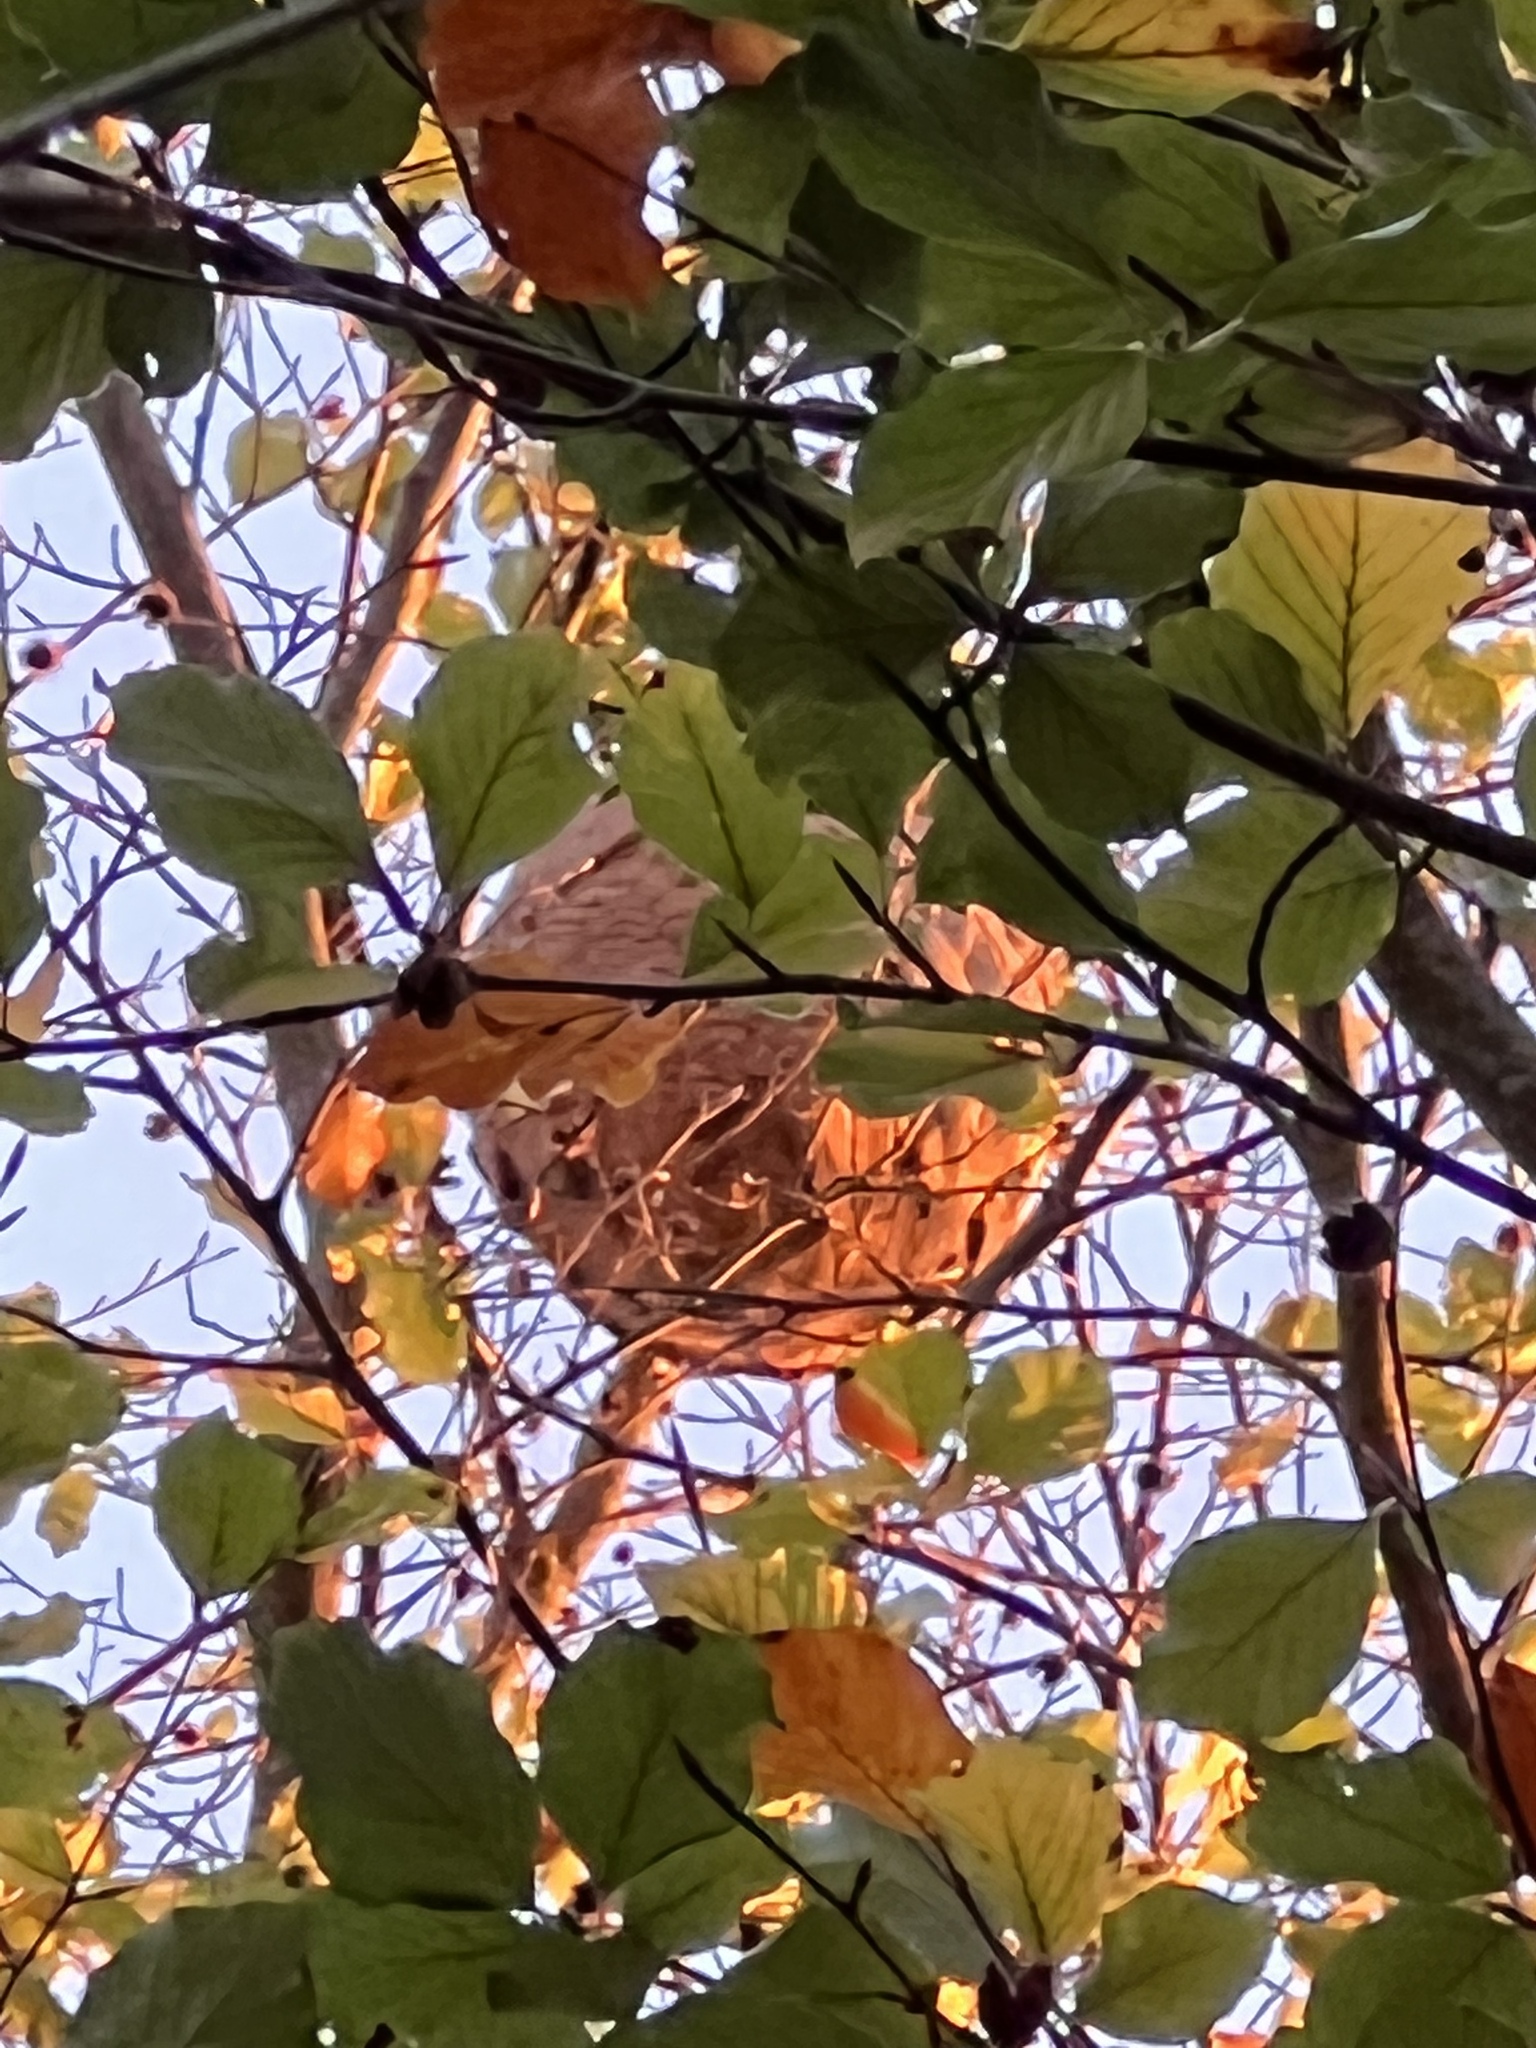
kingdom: Animalia
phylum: Arthropoda
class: Insecta
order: Hymenoptera
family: Vespidae
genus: Vespa
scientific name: Vespa velutina
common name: Asian hornet
